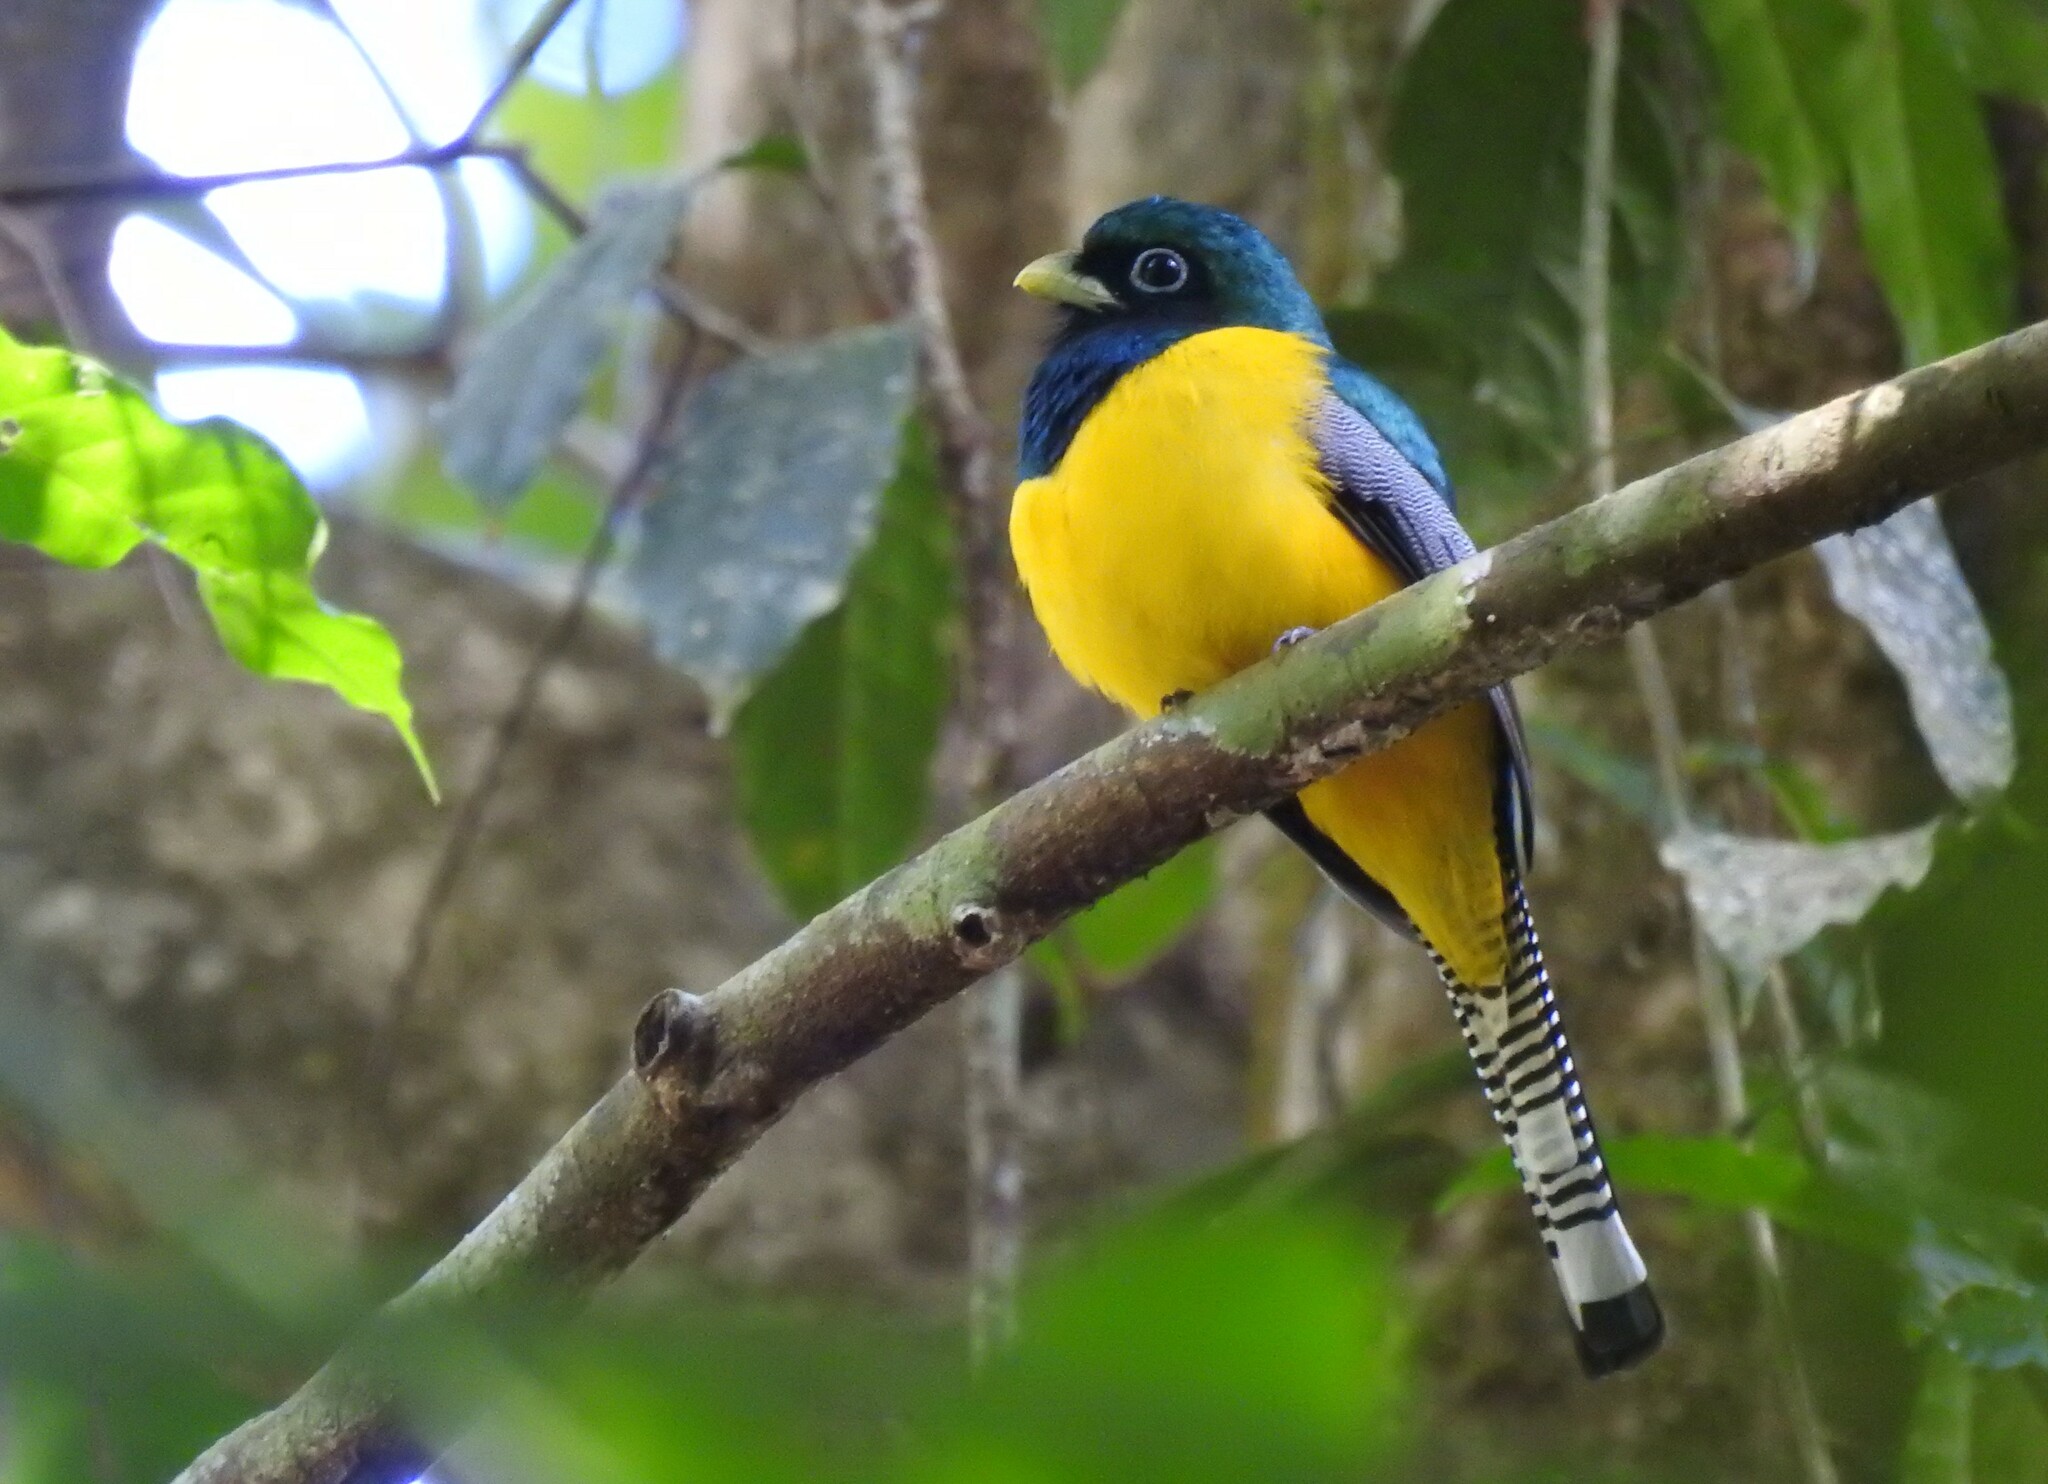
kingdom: Animalia
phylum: Chordata
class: Aves
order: Trogoniformes
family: Trogonidae
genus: Trogon
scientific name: Trogon rufus
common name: Black-throated trogon
